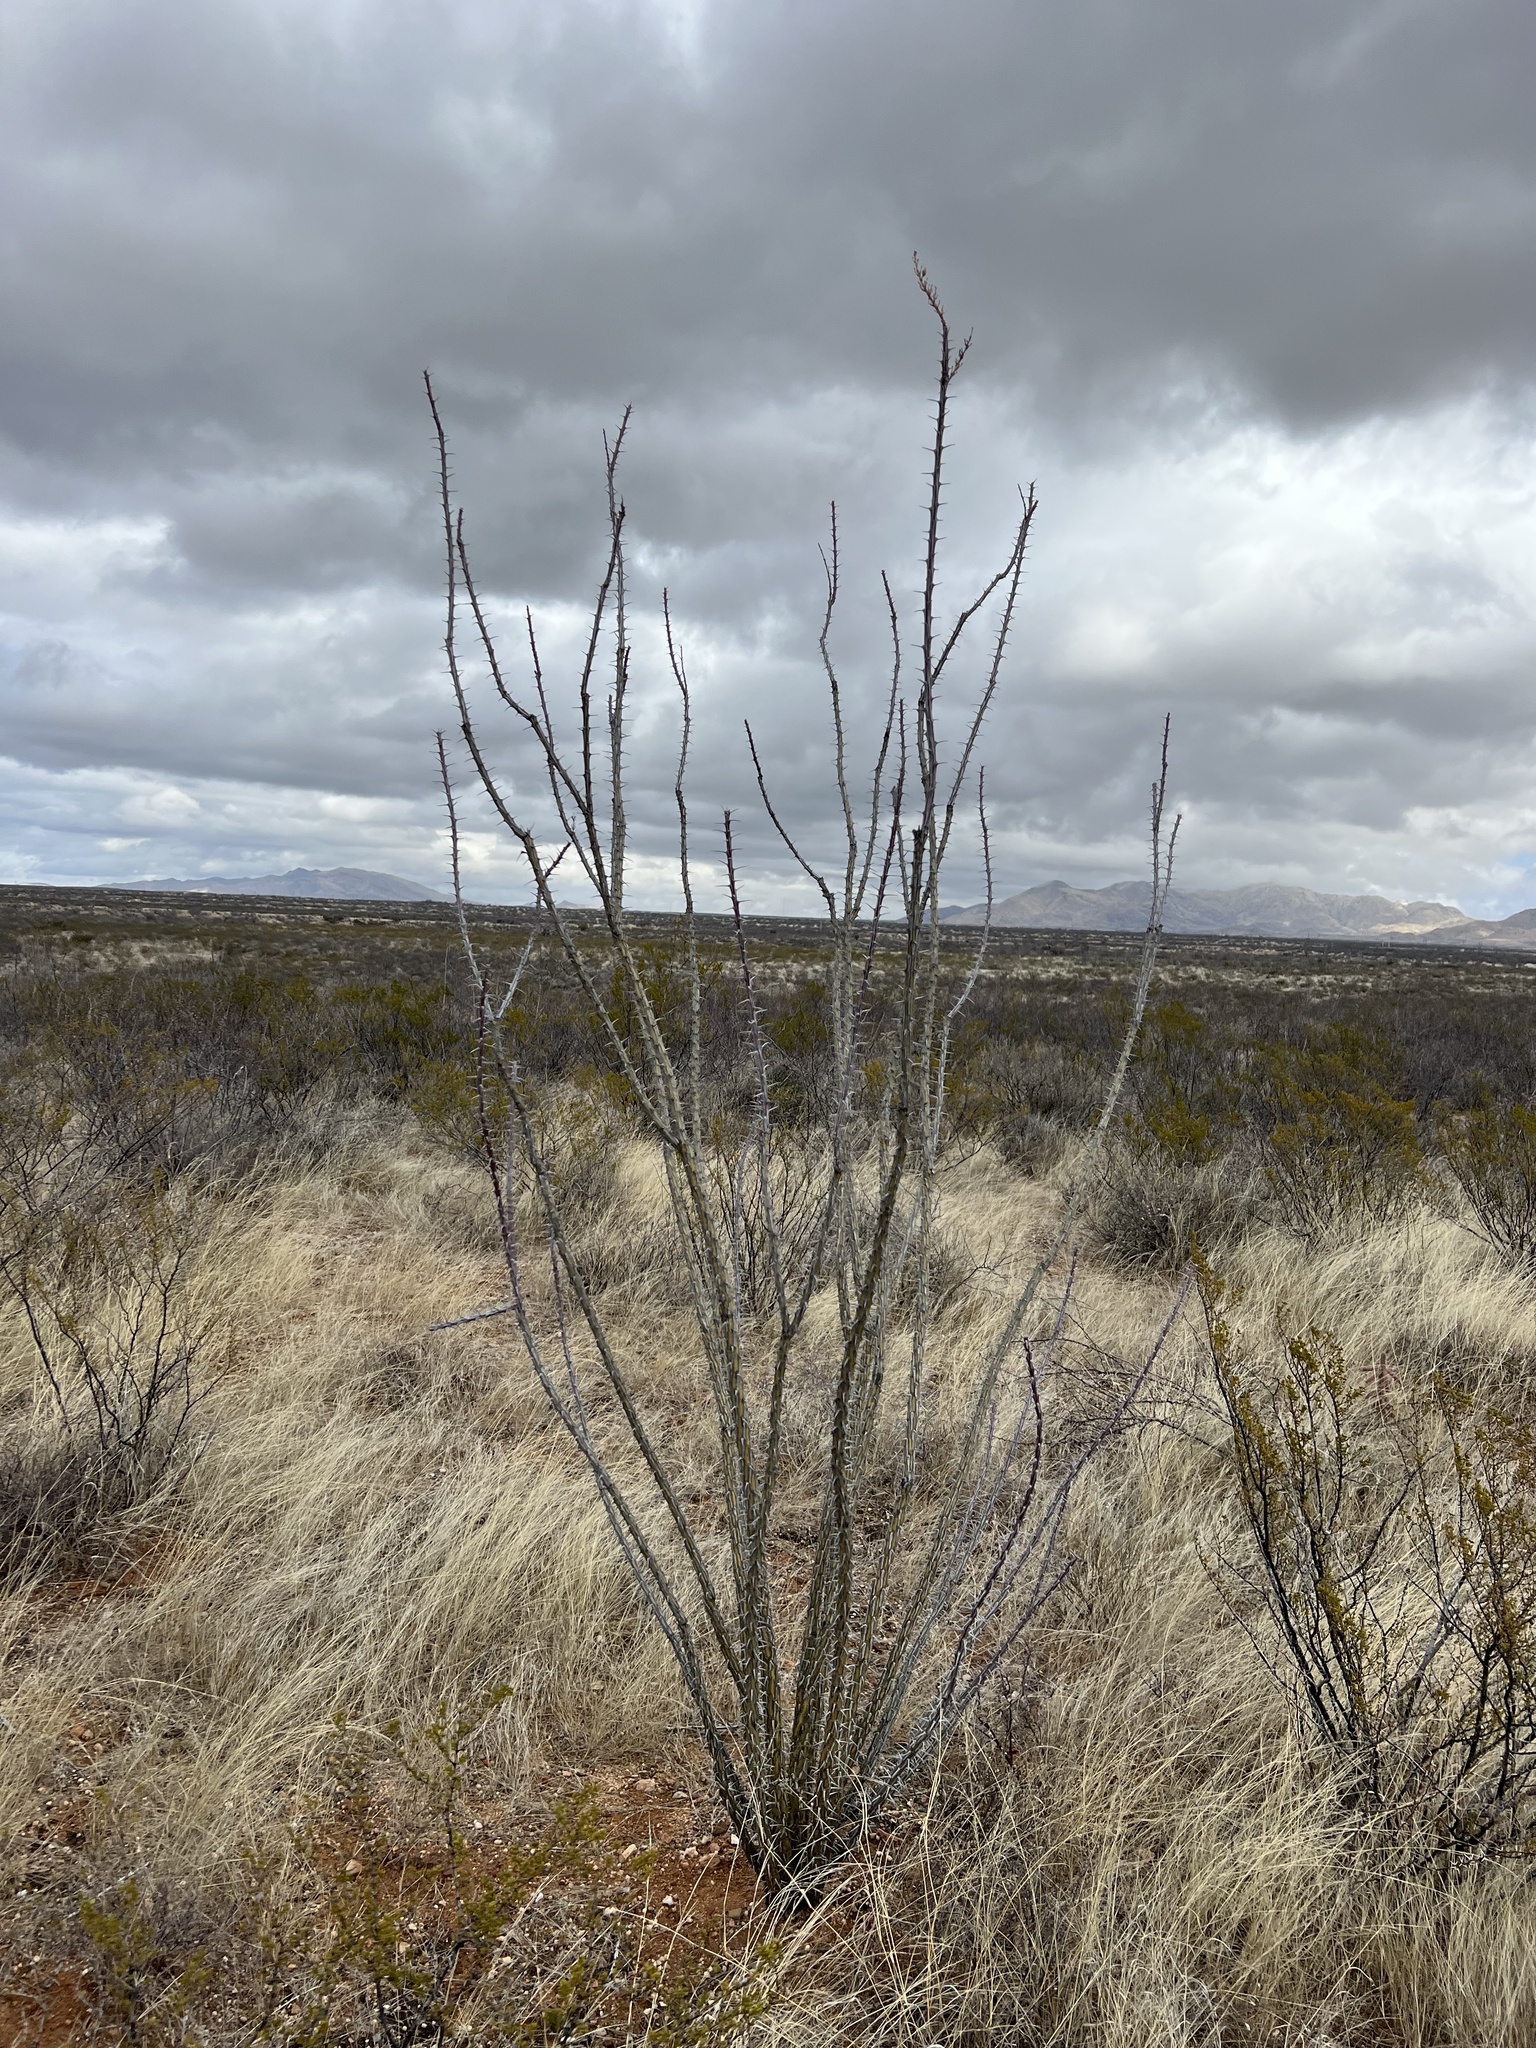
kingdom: Plantae
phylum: Tracheophyta
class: Magnoliopsida
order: Ericales
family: Fouquieriaceae
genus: Fouquieria
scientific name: Fouquieria splendens
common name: Vine-cactus
